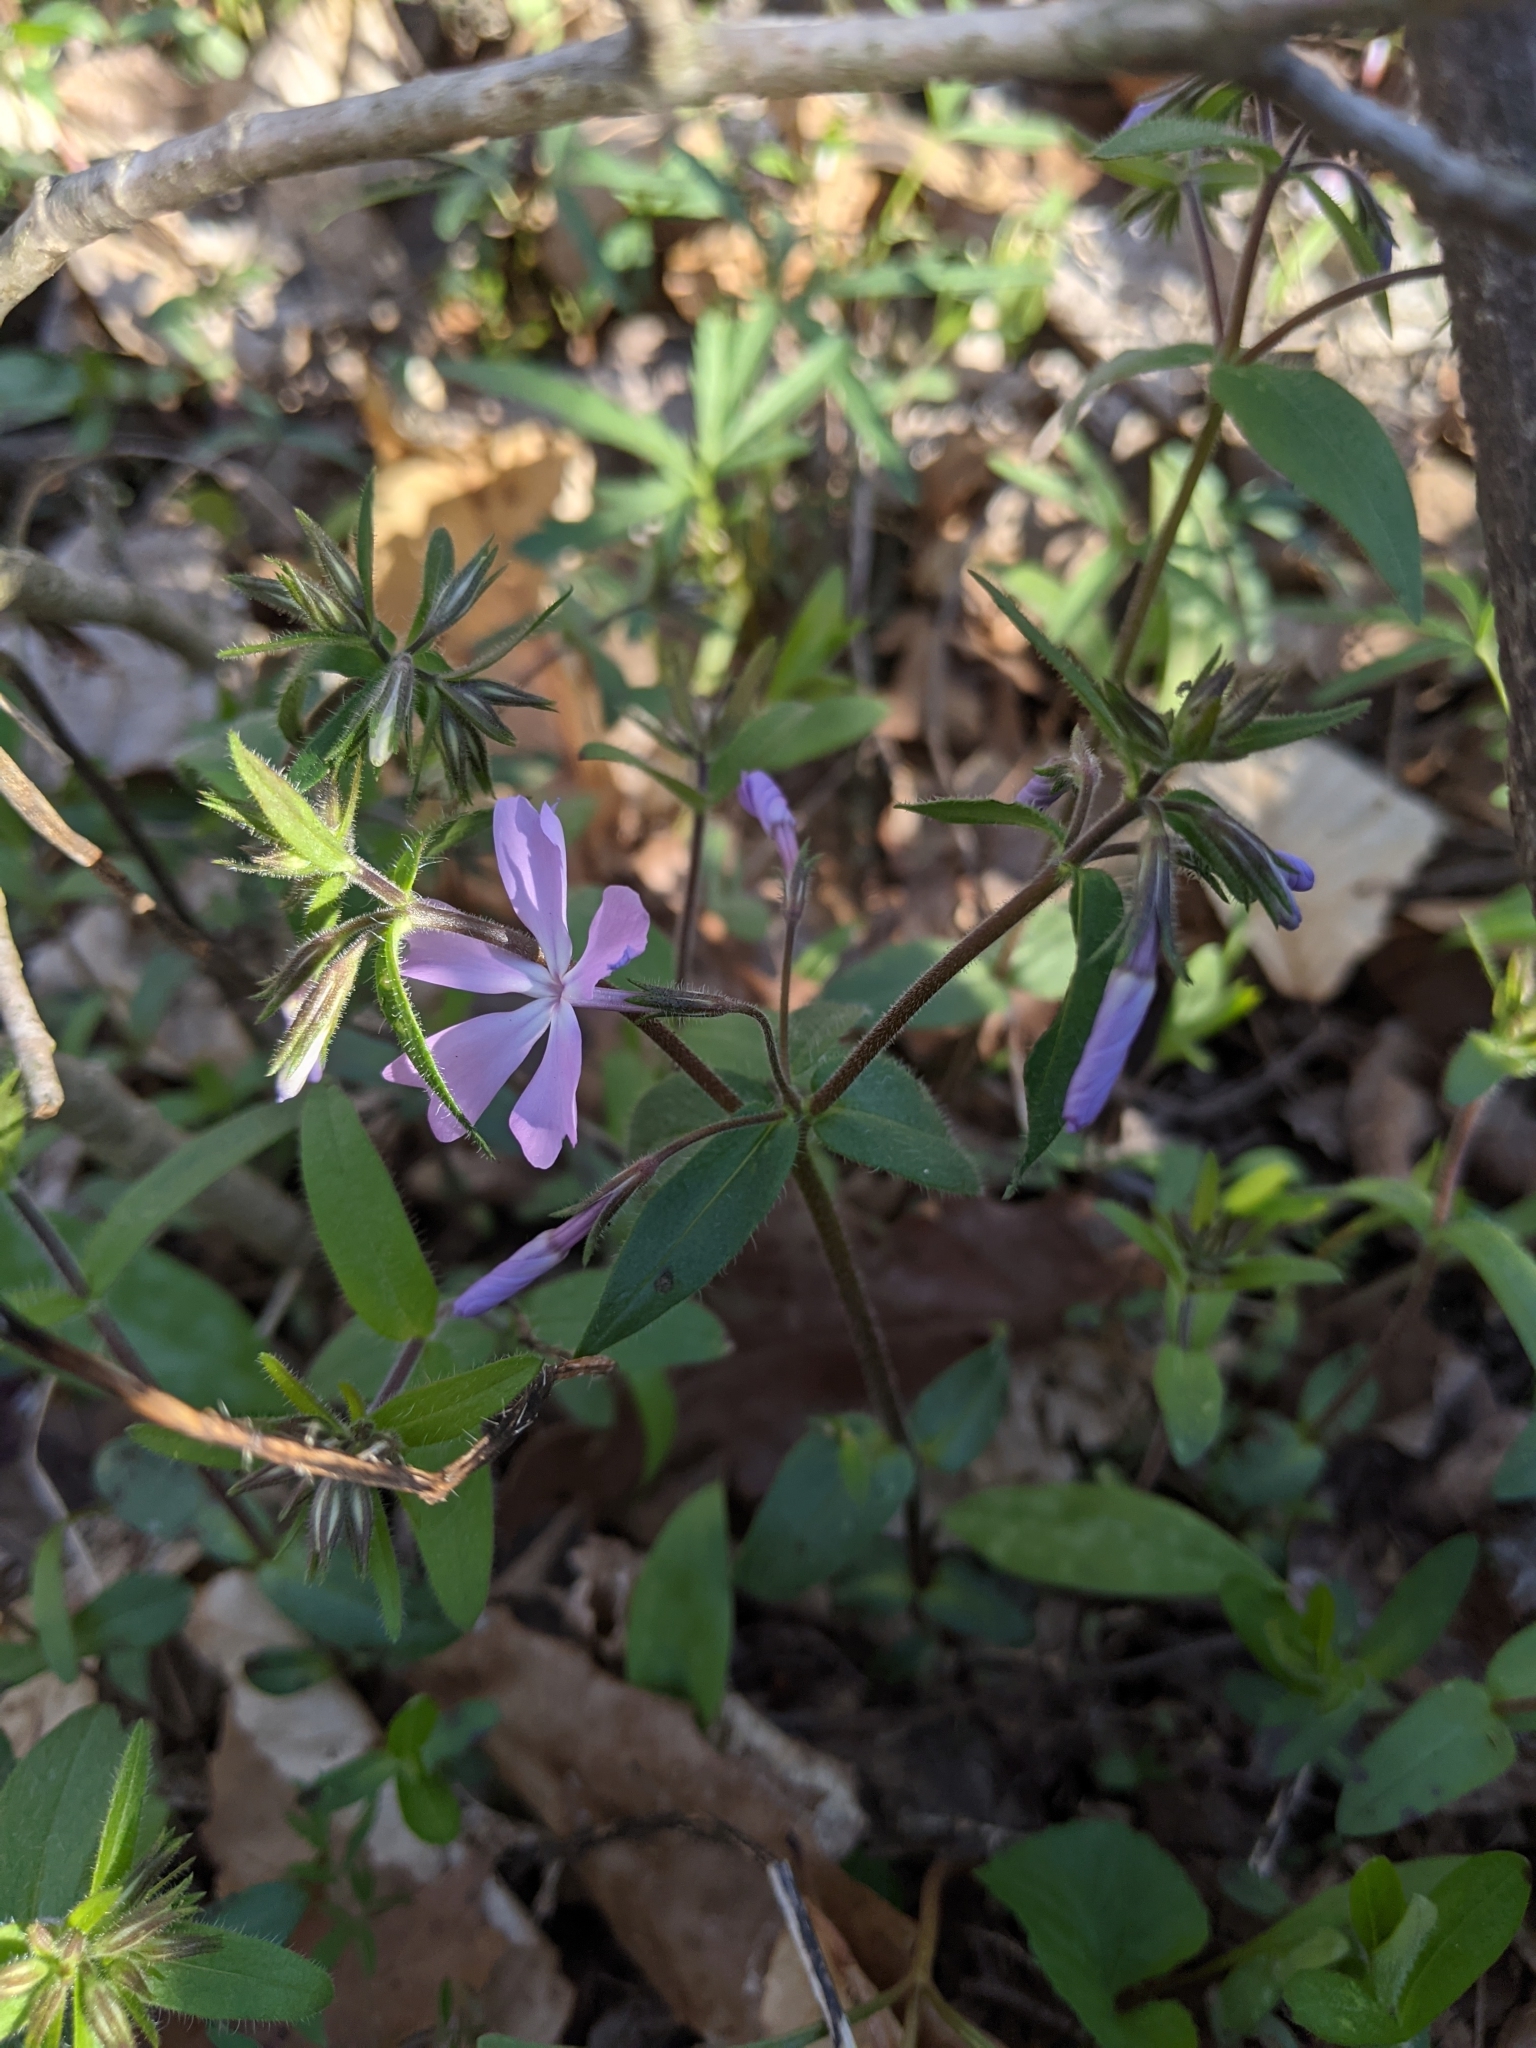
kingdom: Plantae
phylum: Tracheophyta
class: Magnoliopsida
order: Ericales
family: Polemoniaceae
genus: Phlox
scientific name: Phlox divaricata
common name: Blue phlox
